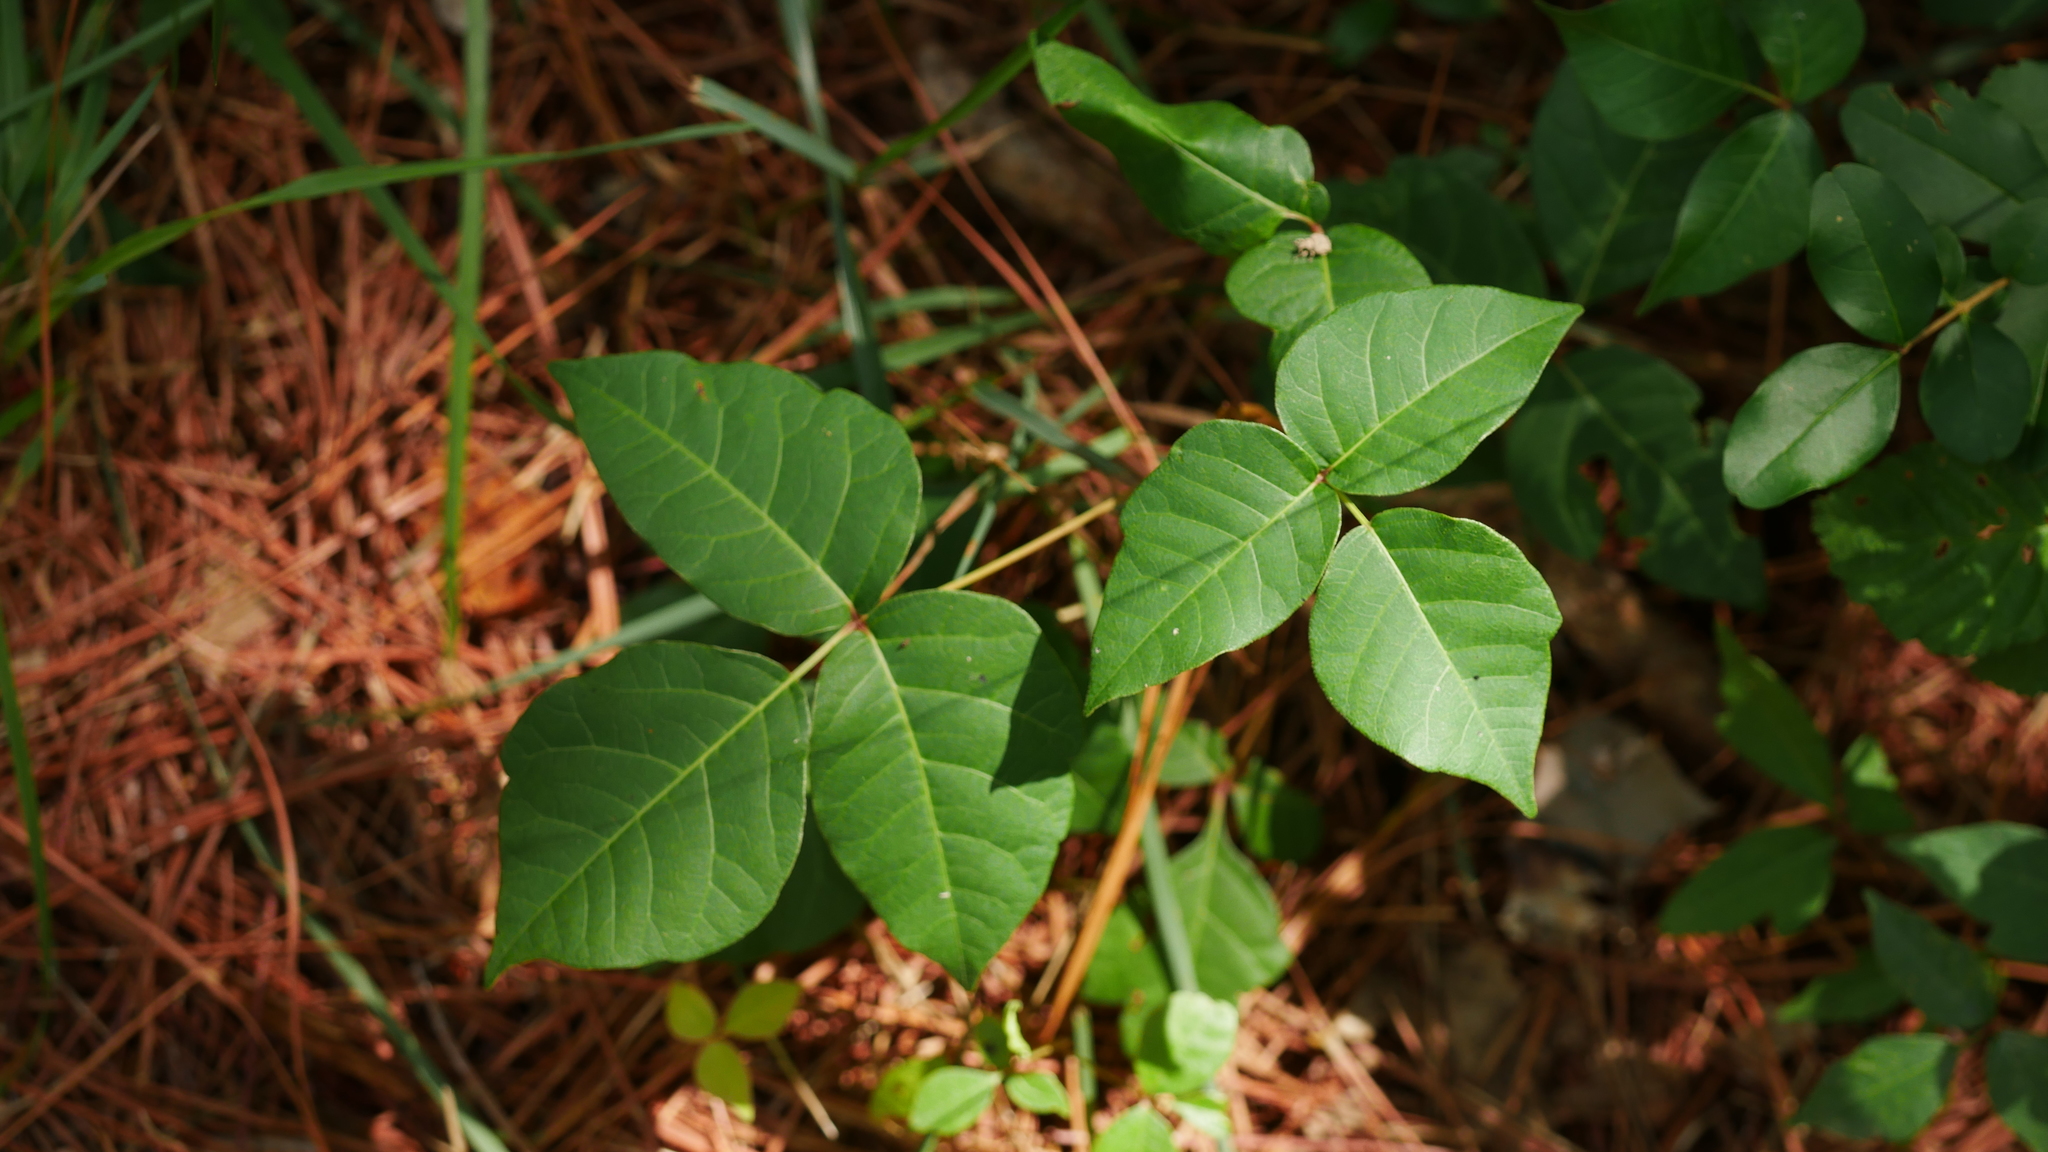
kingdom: Plantae
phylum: Tracheophyta
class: Magnoliopsida
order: Sapindales
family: Anacardiaceae
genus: Toxicodendron
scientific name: Toxicodendron radicans
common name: Poison ivy
